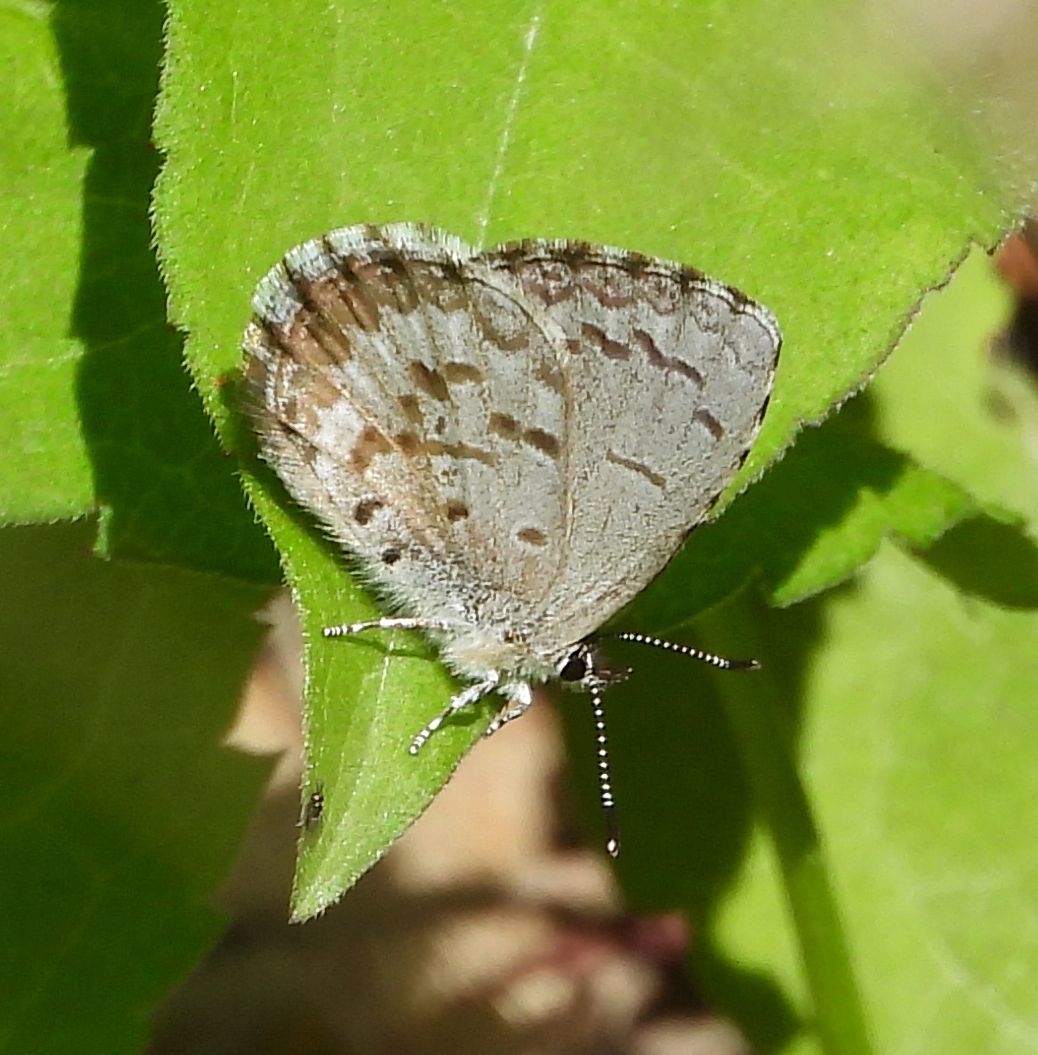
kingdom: Animalia
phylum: Arthropoda
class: Insecta
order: Lepidoptera
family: Lycaenidae
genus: Celastrina
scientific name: Celastrina lucia
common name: Lucia azure
